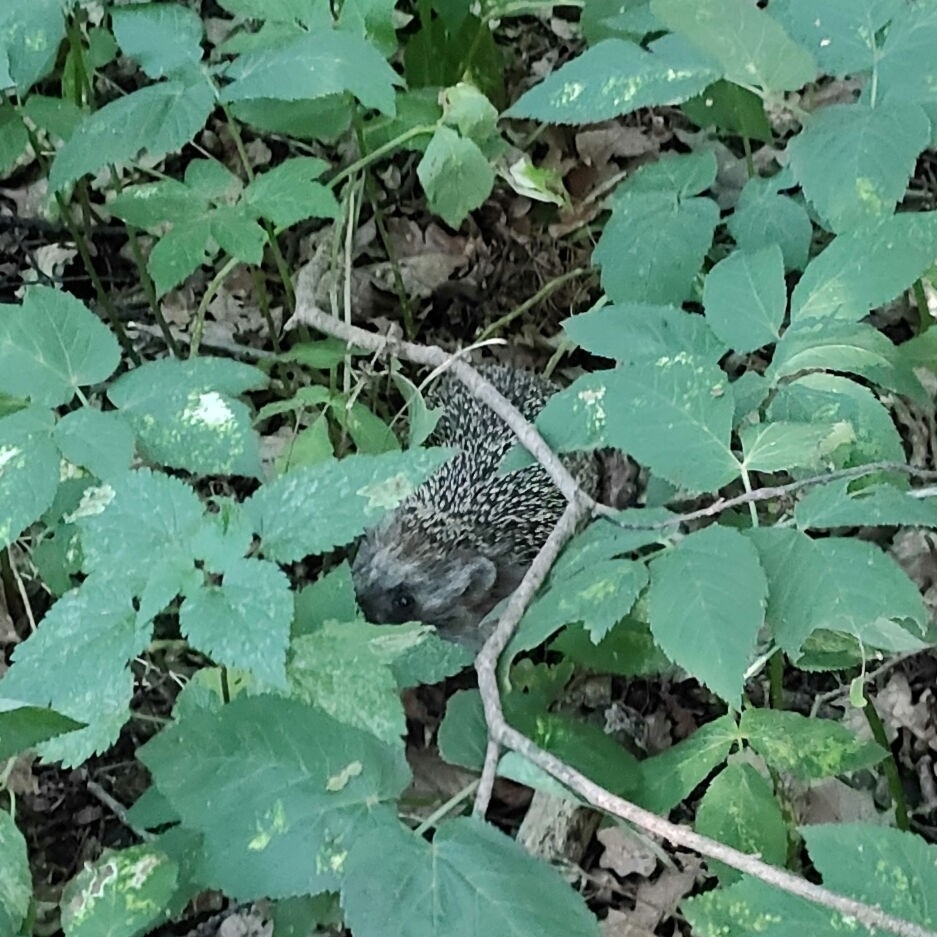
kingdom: Animalia
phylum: Chordata
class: Mammalia
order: Erinaceomorpha
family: Erinaceidae
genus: Erinaceus
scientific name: Erinaceus roumanicus
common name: Northern white-breasted hedgehog
